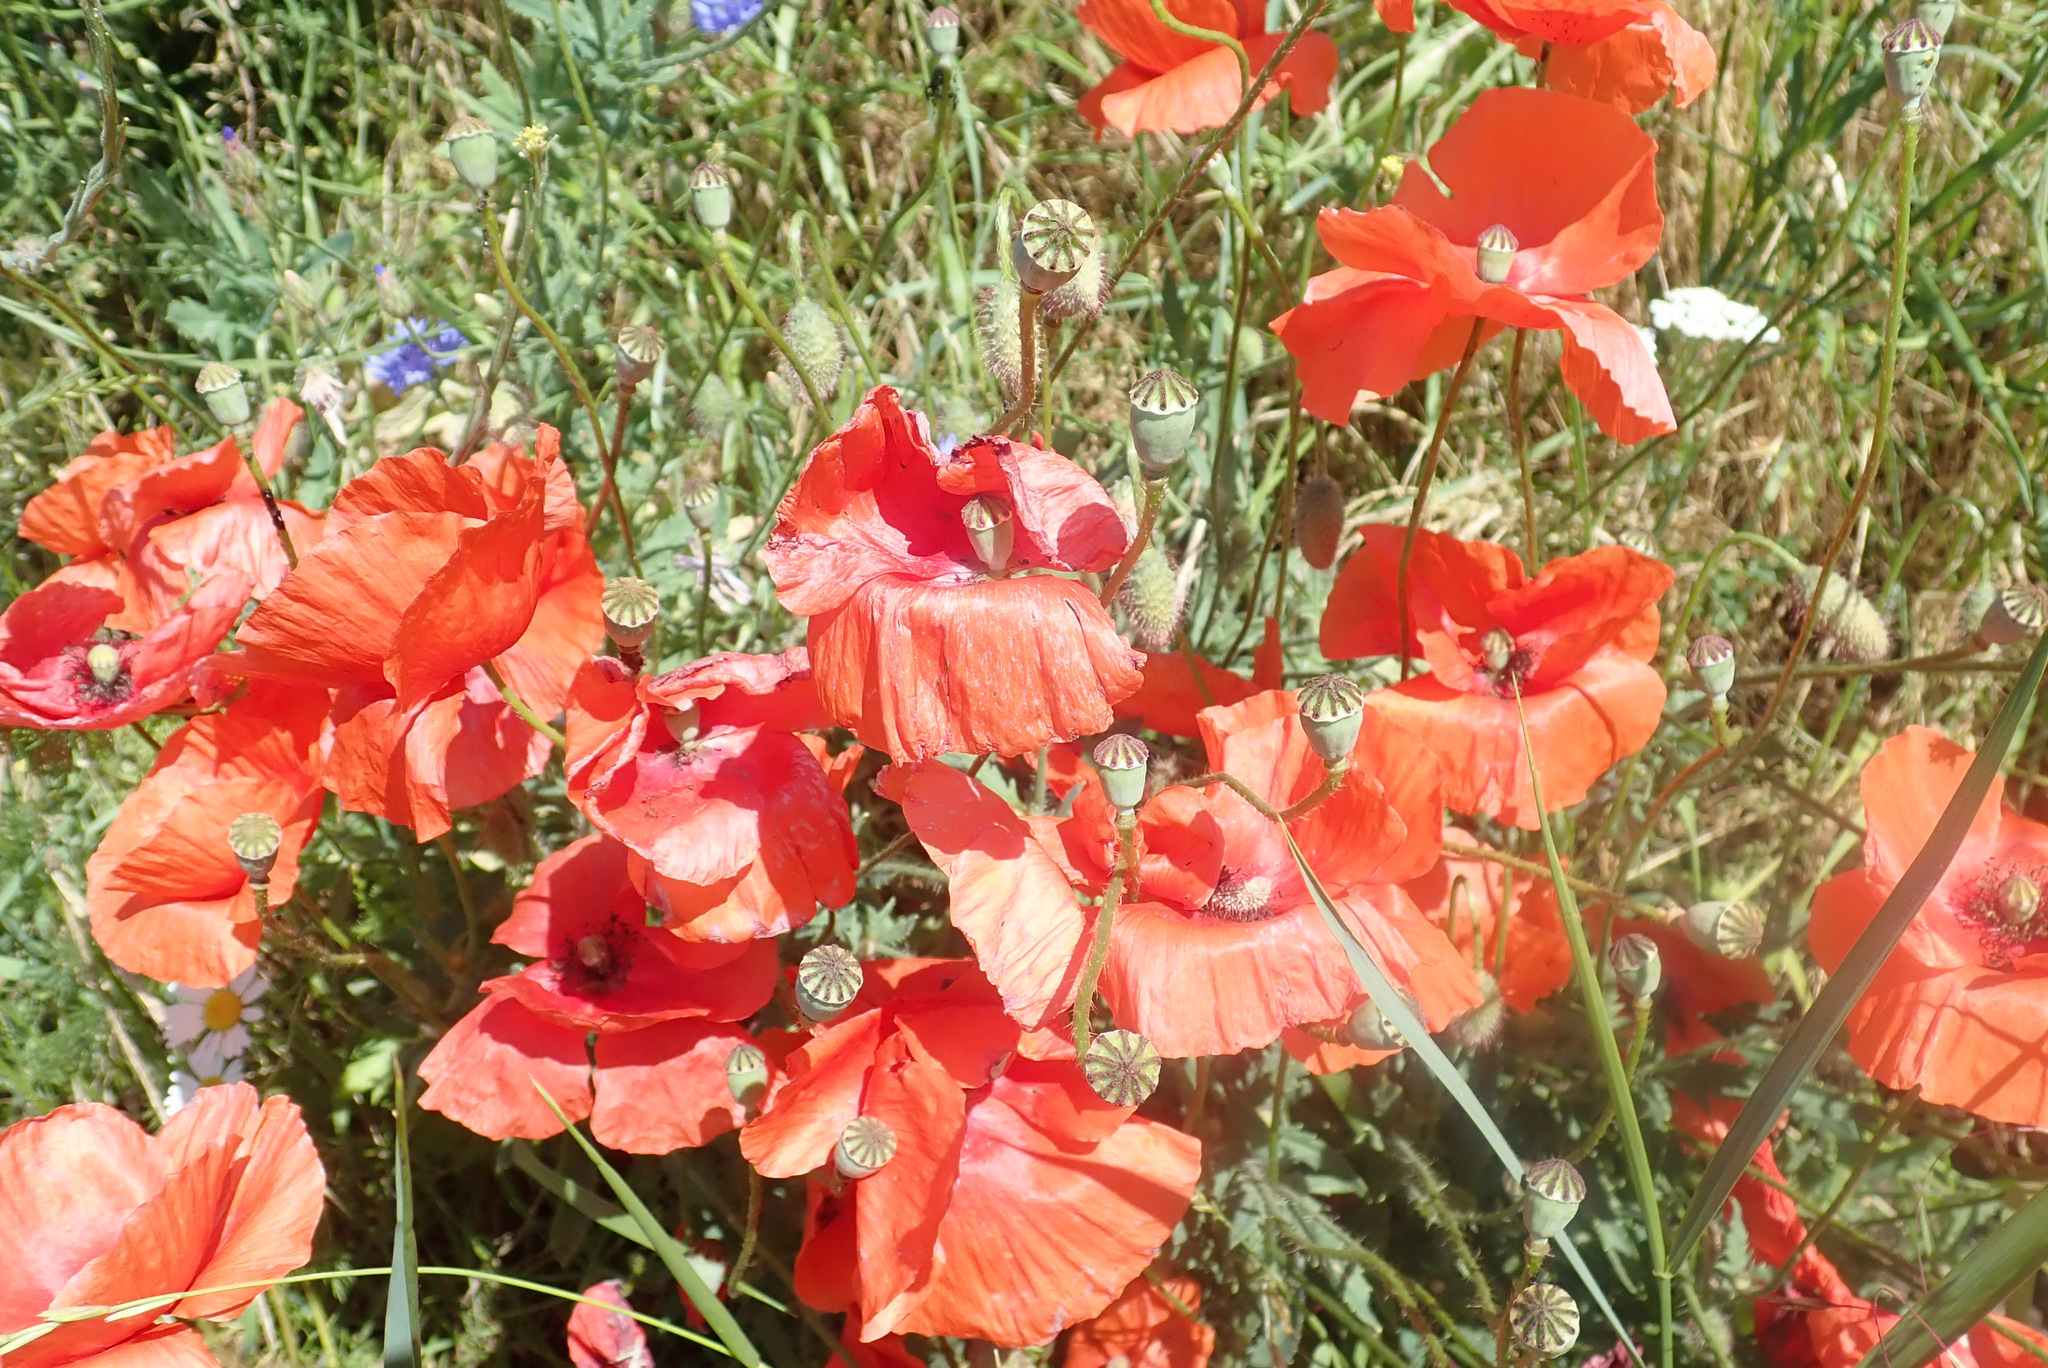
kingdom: Plantae
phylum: Tracheophyta
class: Magnoliopsida
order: Ranunculales
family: Papaveraceae
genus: Papaver
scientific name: Papaver rhoeas
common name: Corn poppy
